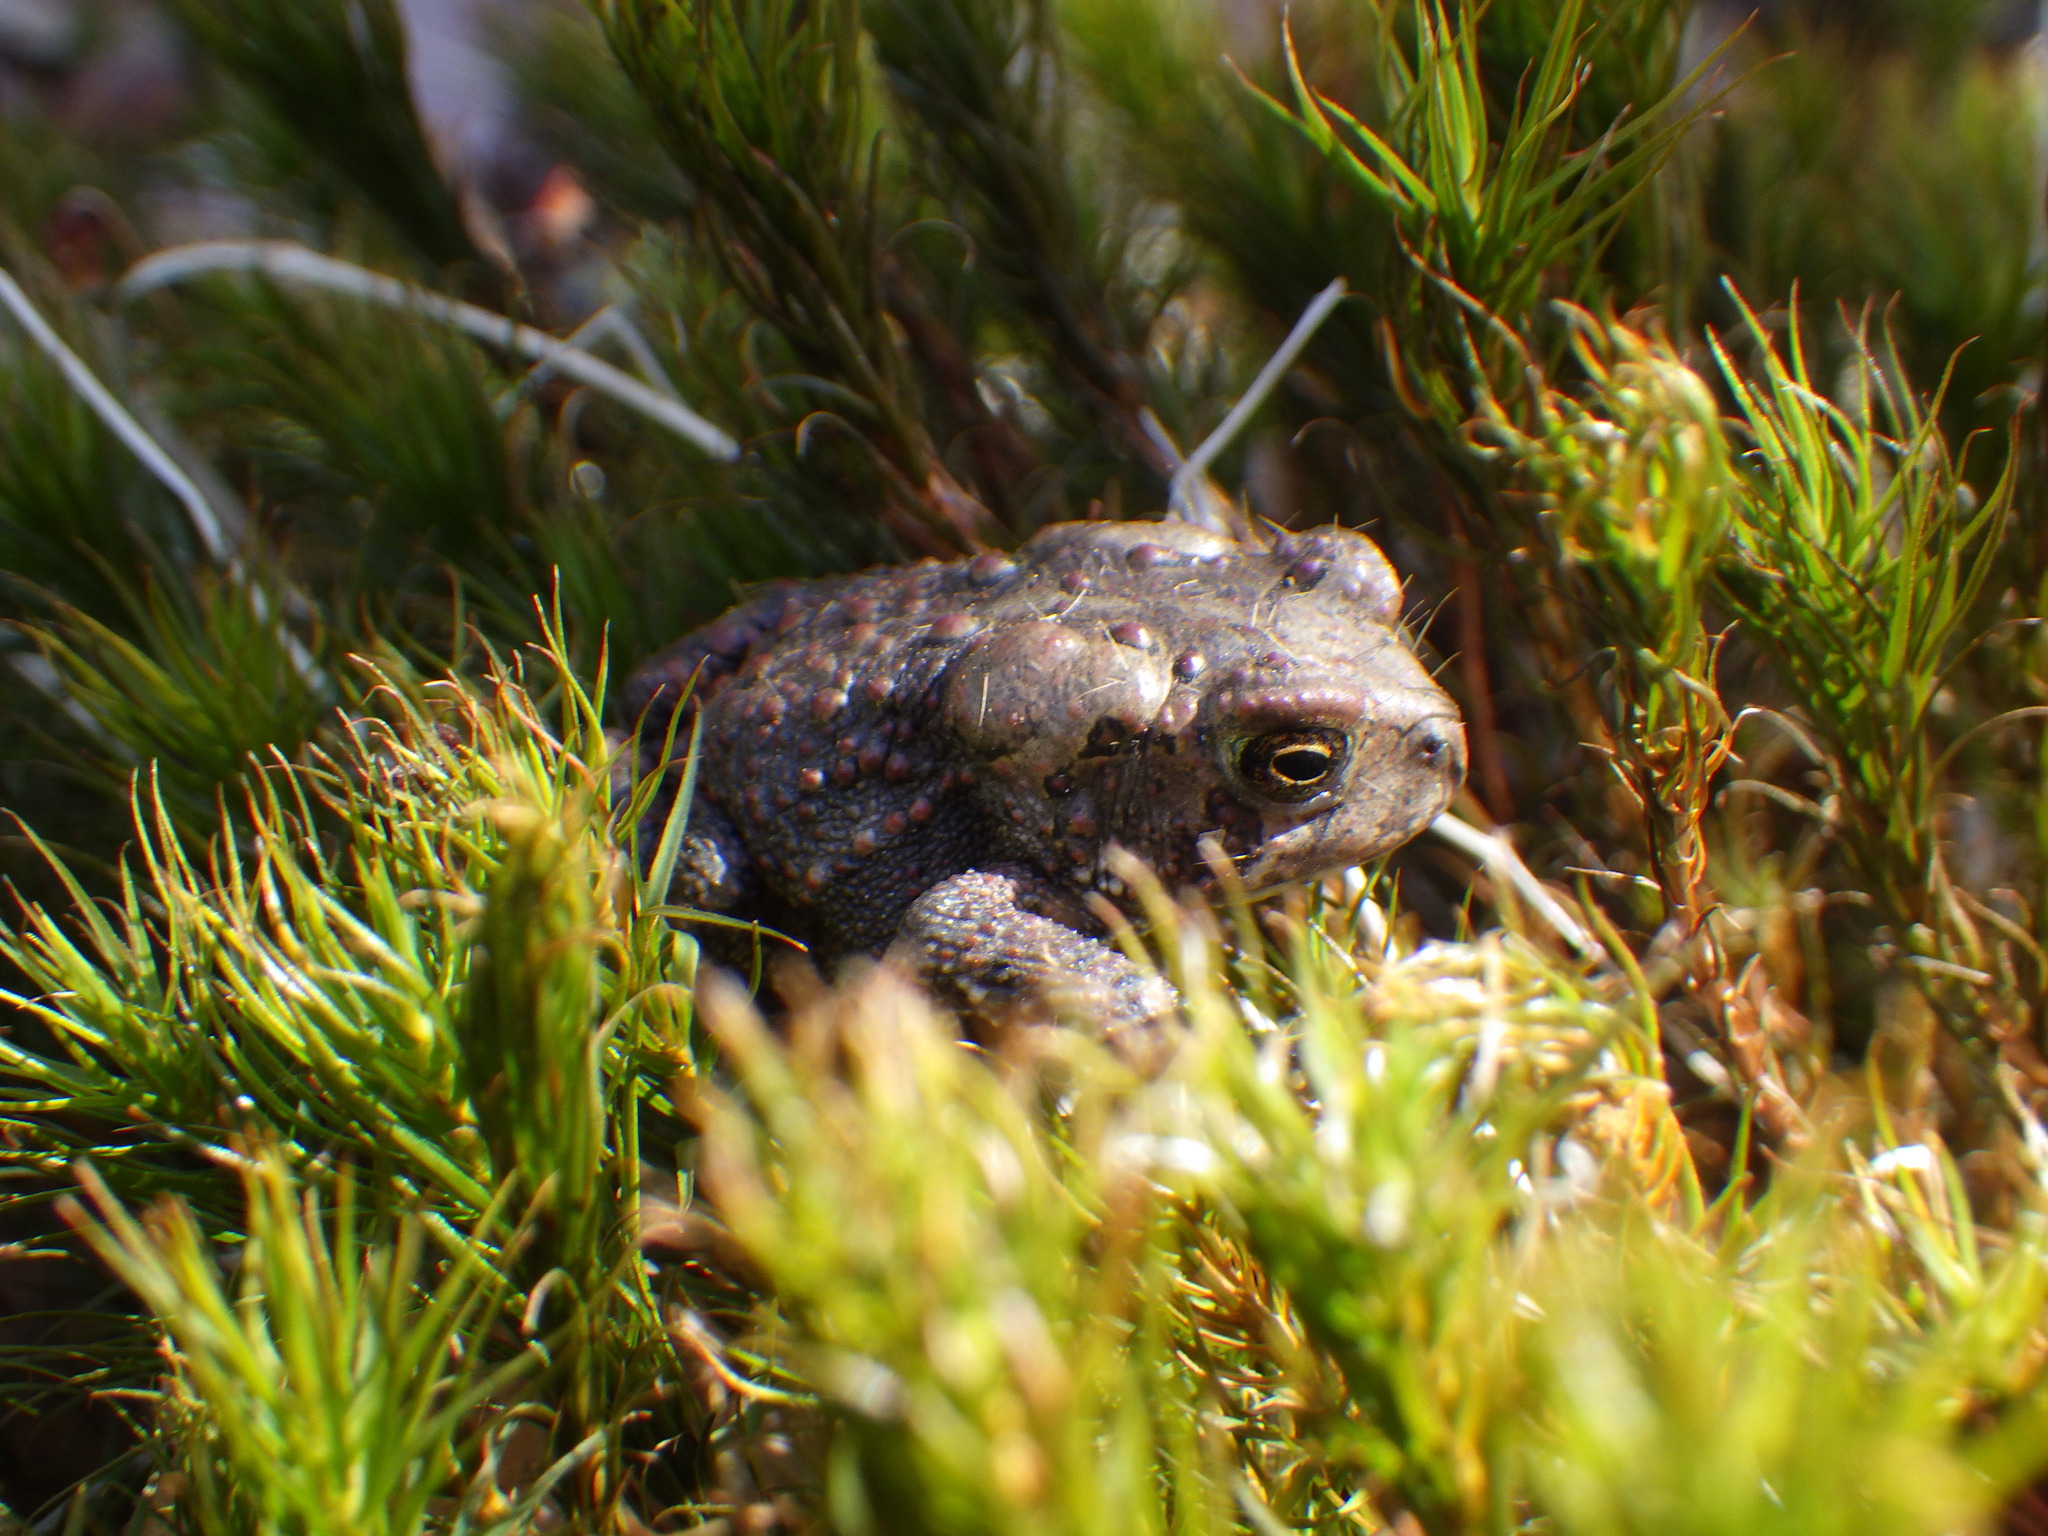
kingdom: Animalia
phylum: Chordata
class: Amphibia
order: Anura
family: Bufonidae
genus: Anaxyrus
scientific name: Anaxyrus americanus
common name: American toad
